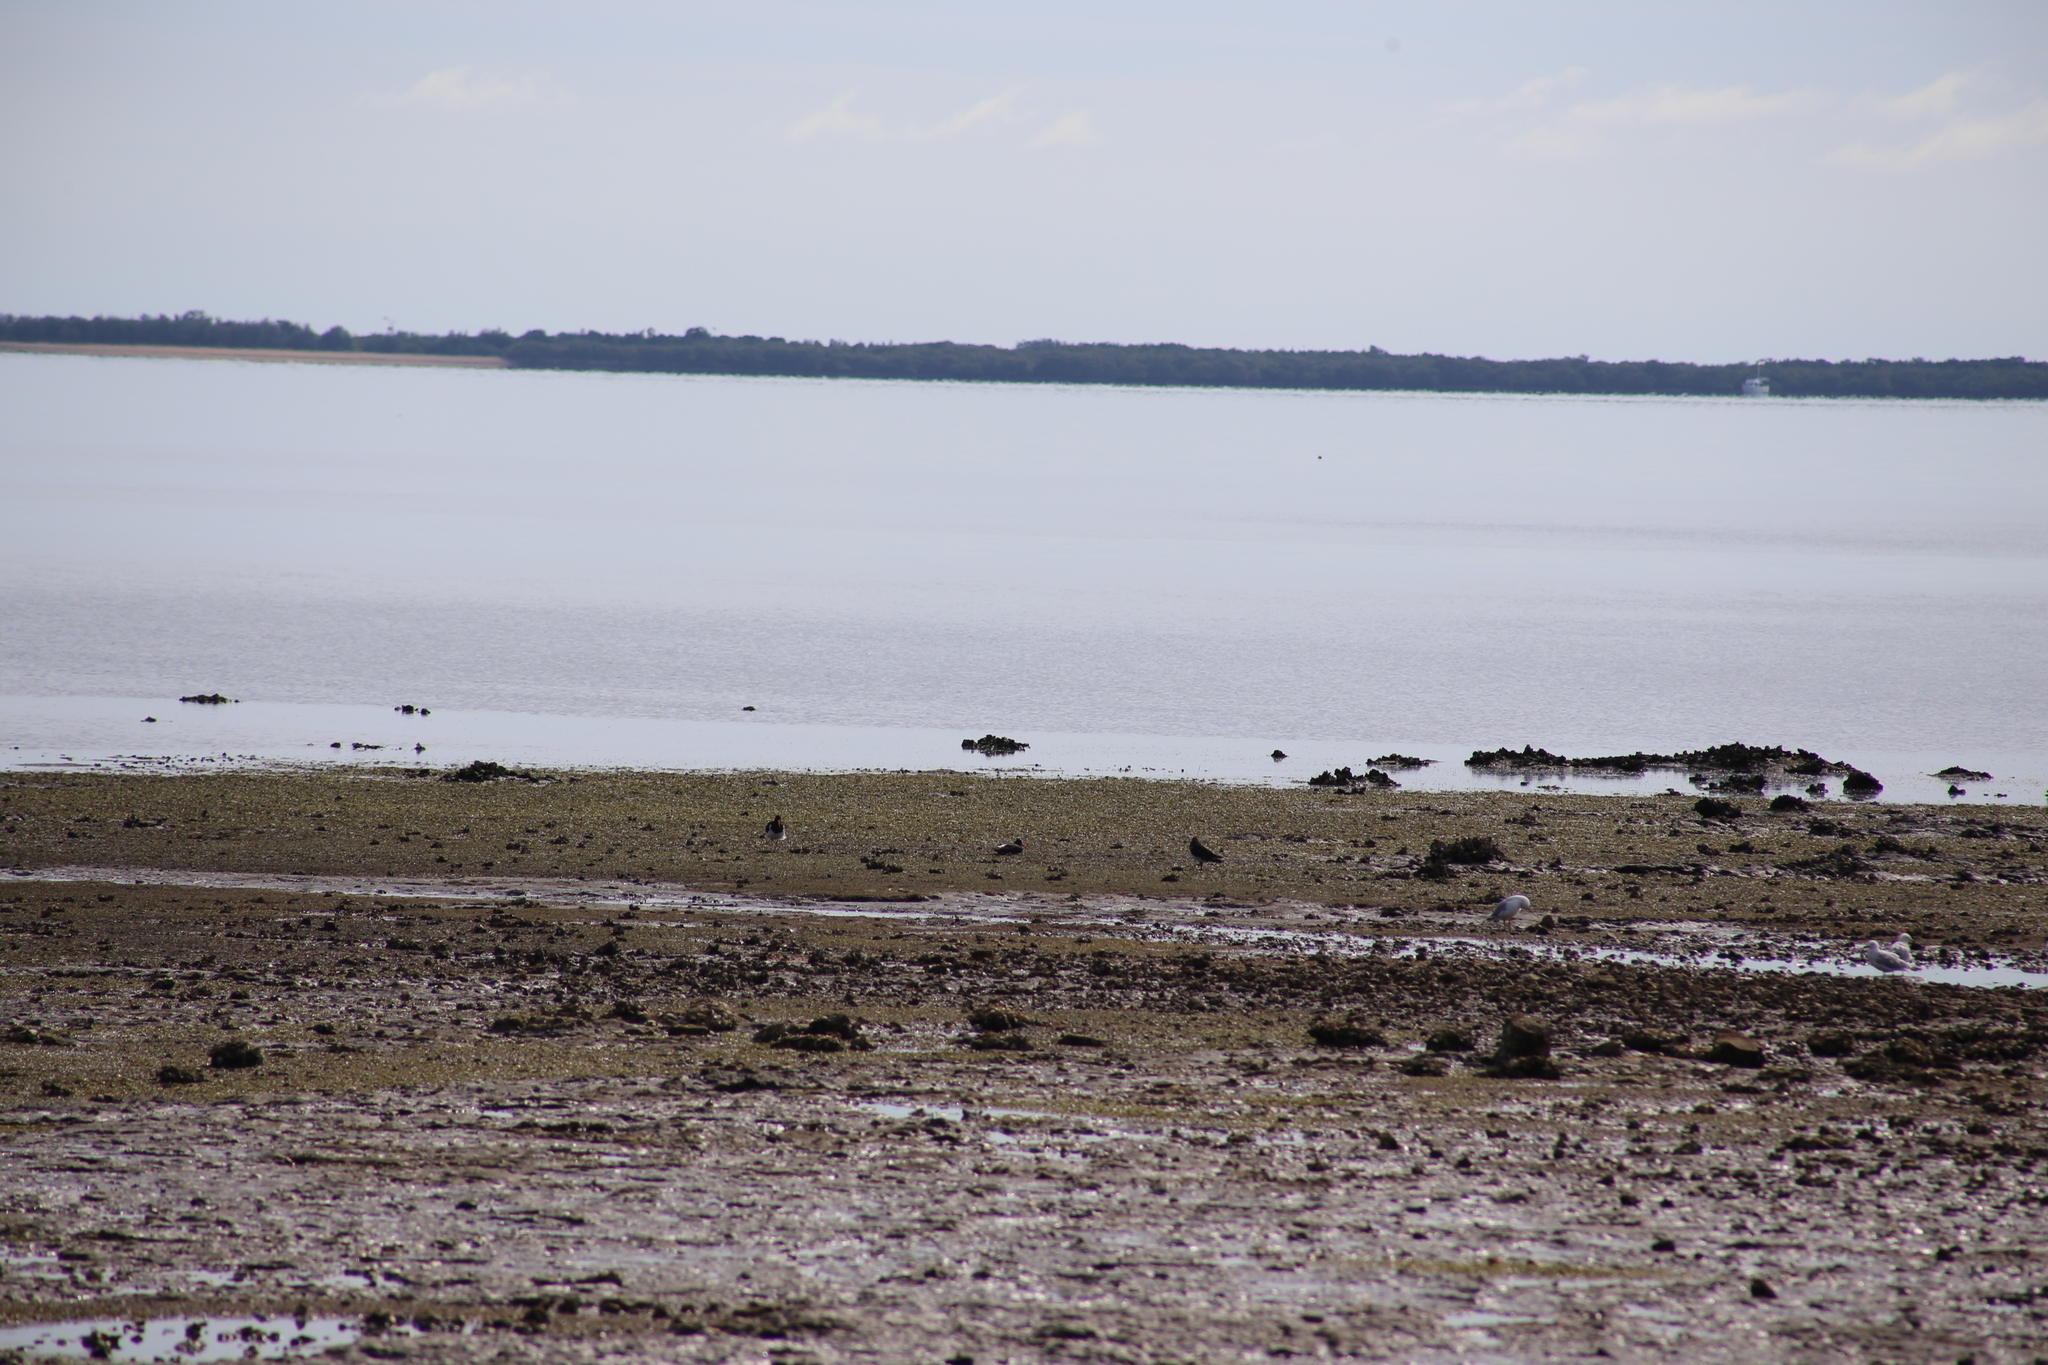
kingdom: Animalia
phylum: Chordata
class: Aves
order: Charadriiformes
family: Haematopodidae
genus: Haematopus
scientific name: Haematopus longirostris
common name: Pied oystercatcher
